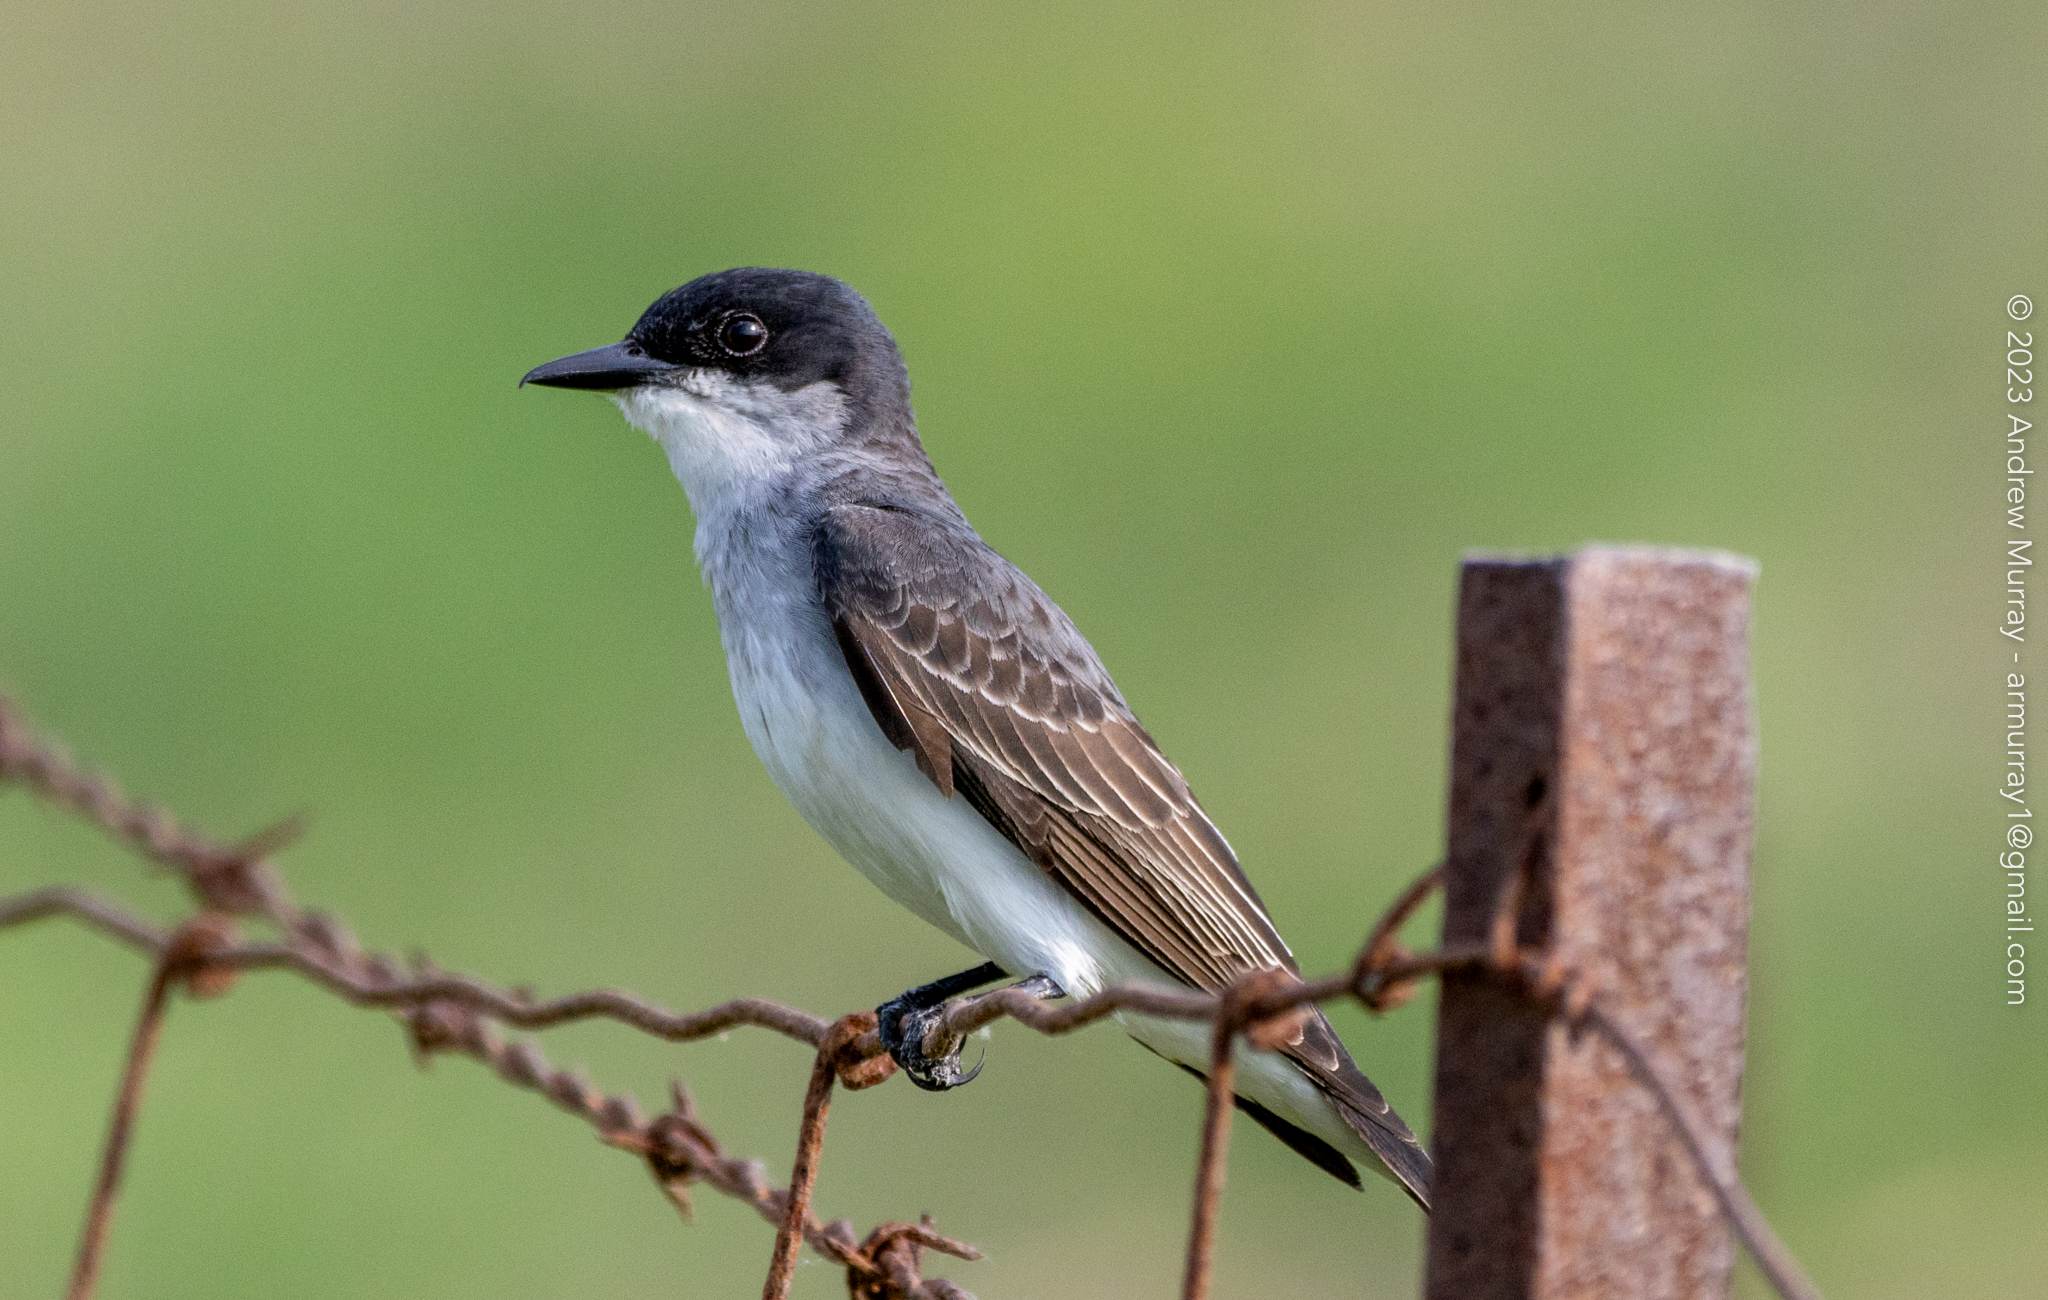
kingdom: Animalia
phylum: Chordata
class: Aves
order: Passeriformes
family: Tyrannidae
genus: Tyrannus
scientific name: Tyrannus tyrannus
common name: Eastern kingbird
